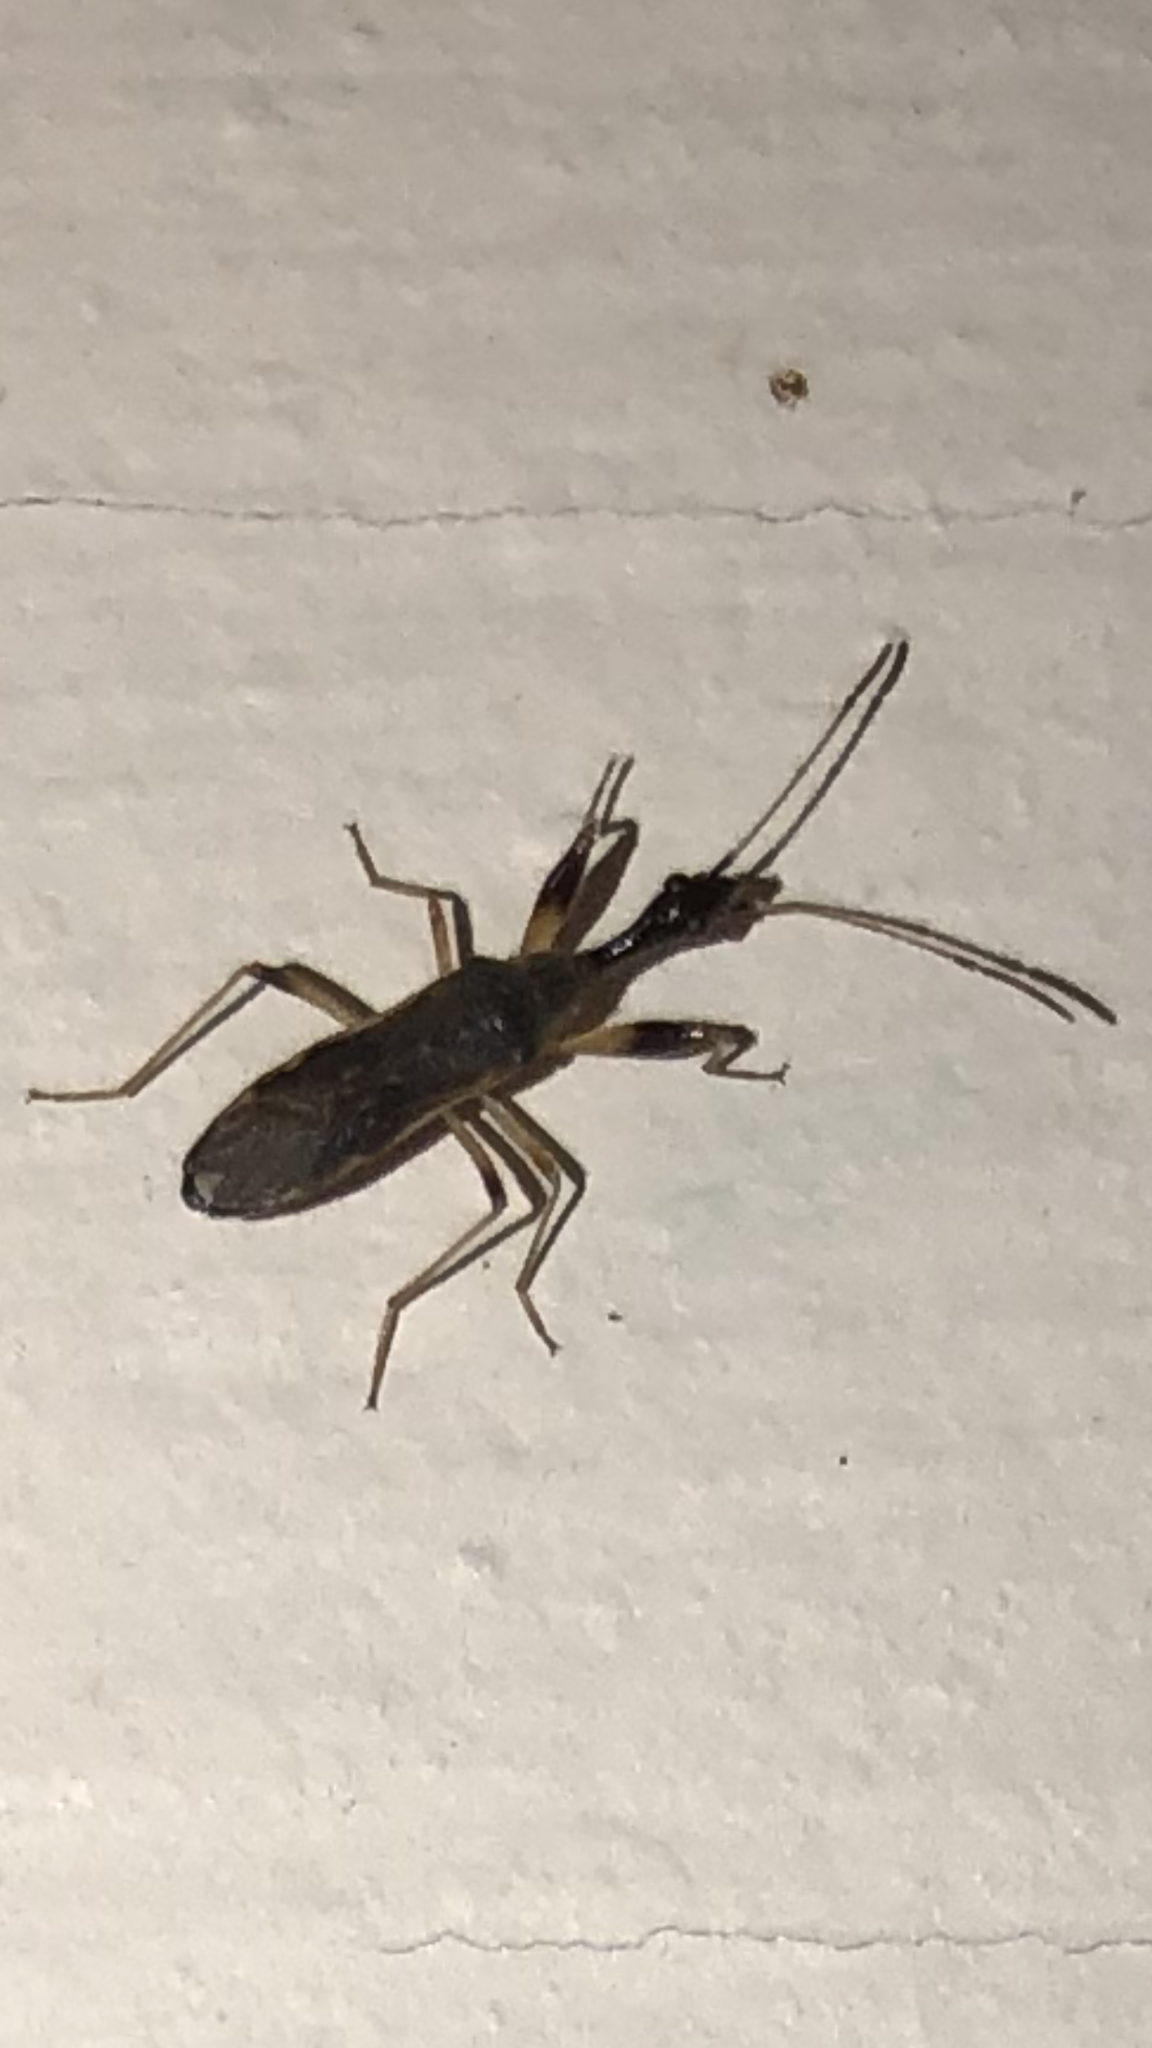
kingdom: Animalia
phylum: Arthropoda
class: Insecta
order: Hemiptera
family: Rhyparochromidae
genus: Myodocha
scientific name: Myodocha serripes
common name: Long-necked seed bug
